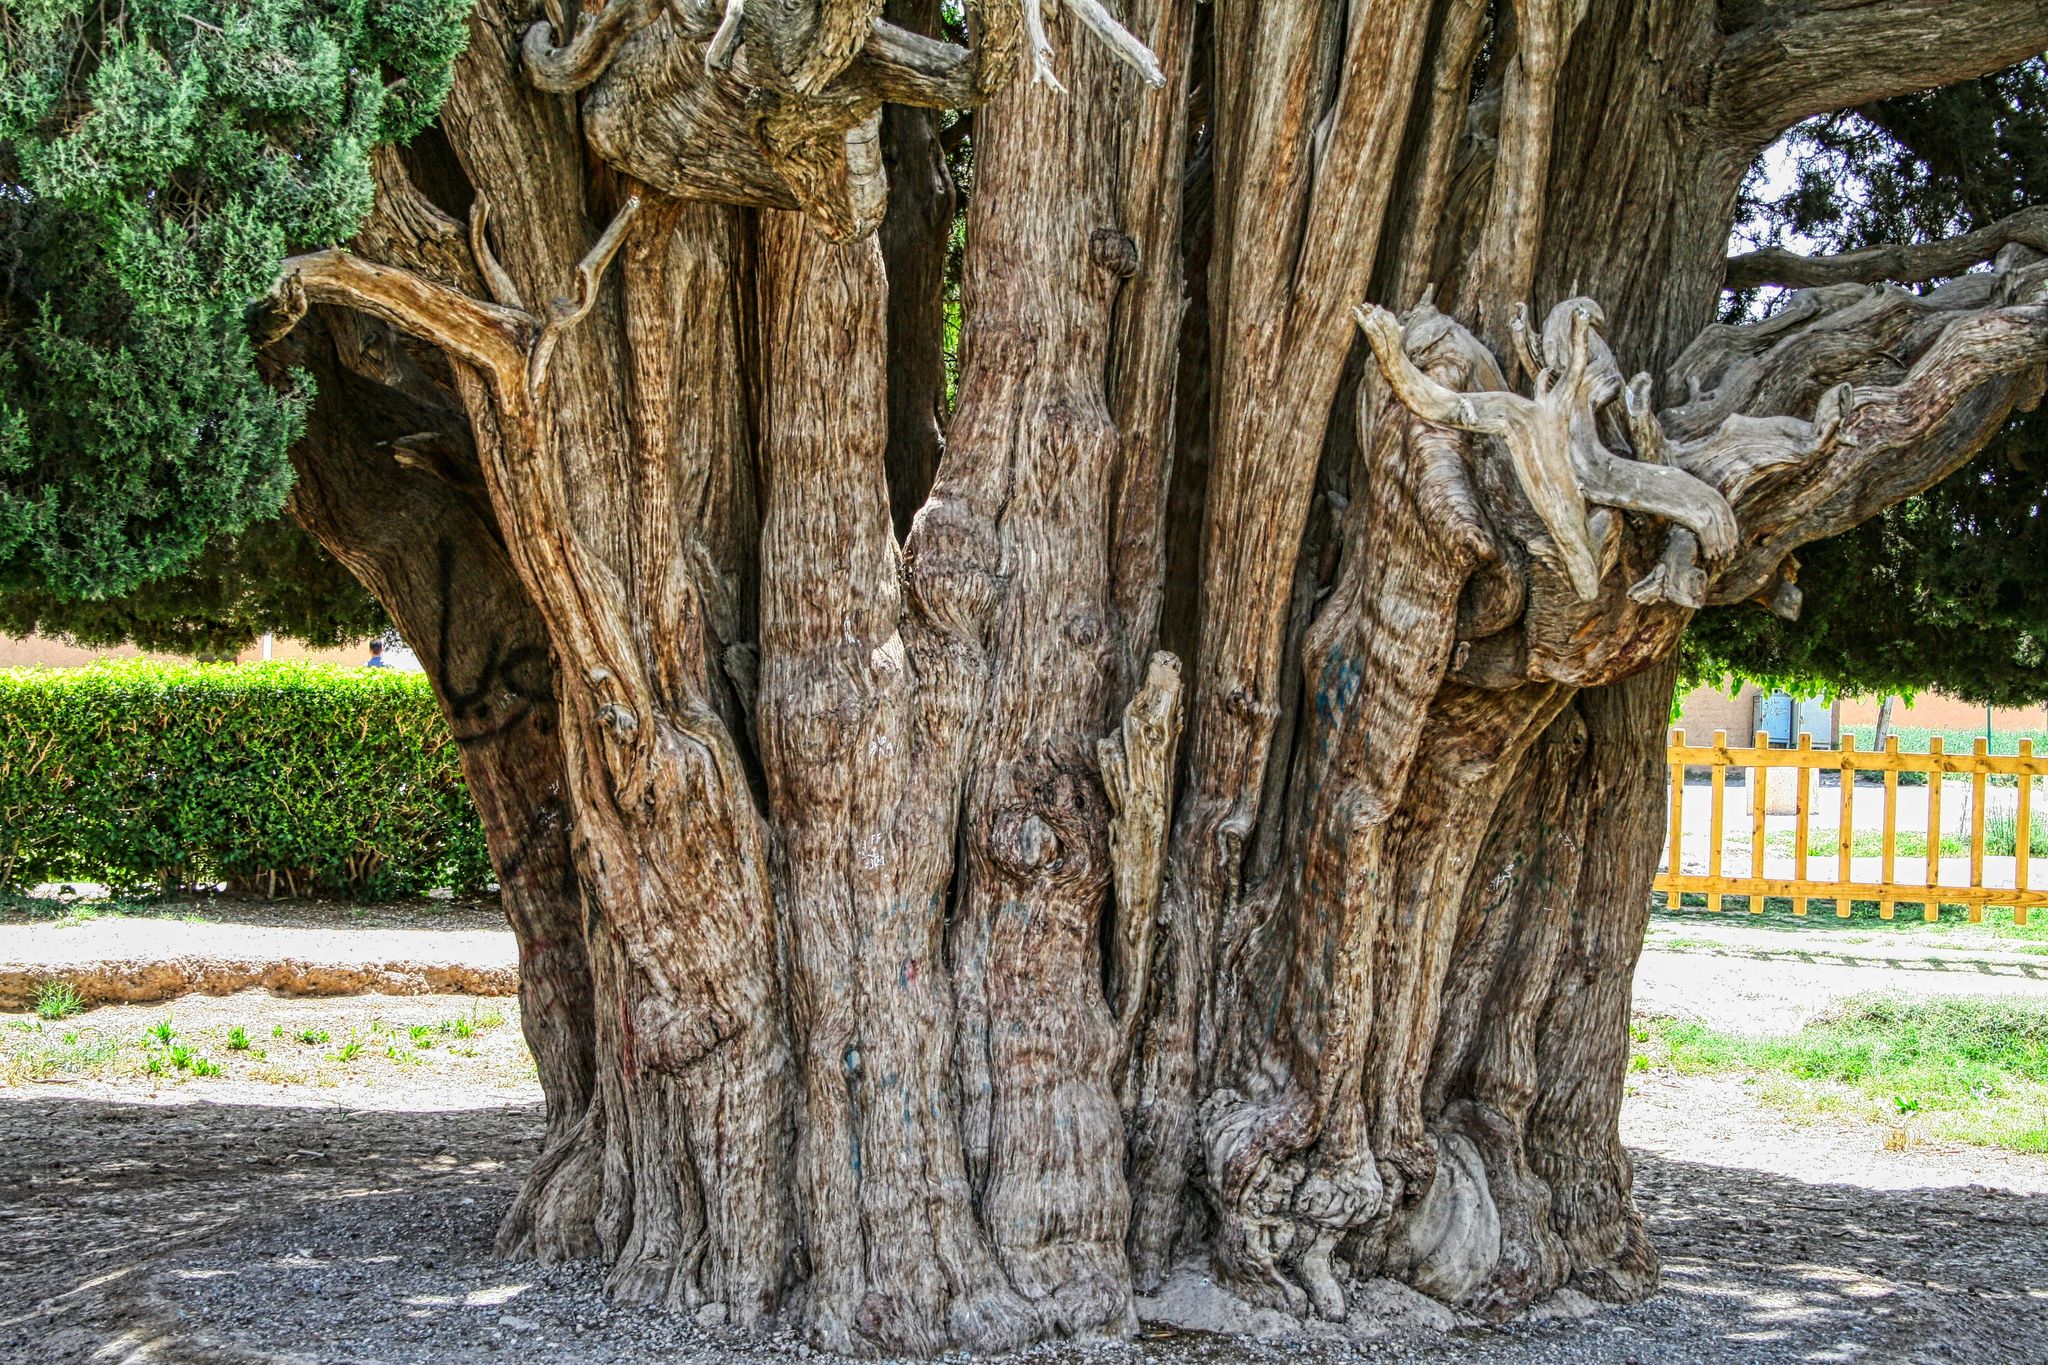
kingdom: Plantae
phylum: Tracheophyta
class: Pinopsida
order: Pinales
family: Cupressaceae
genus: Cupressus
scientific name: Cupressus sempervirens
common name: Italian cypress
